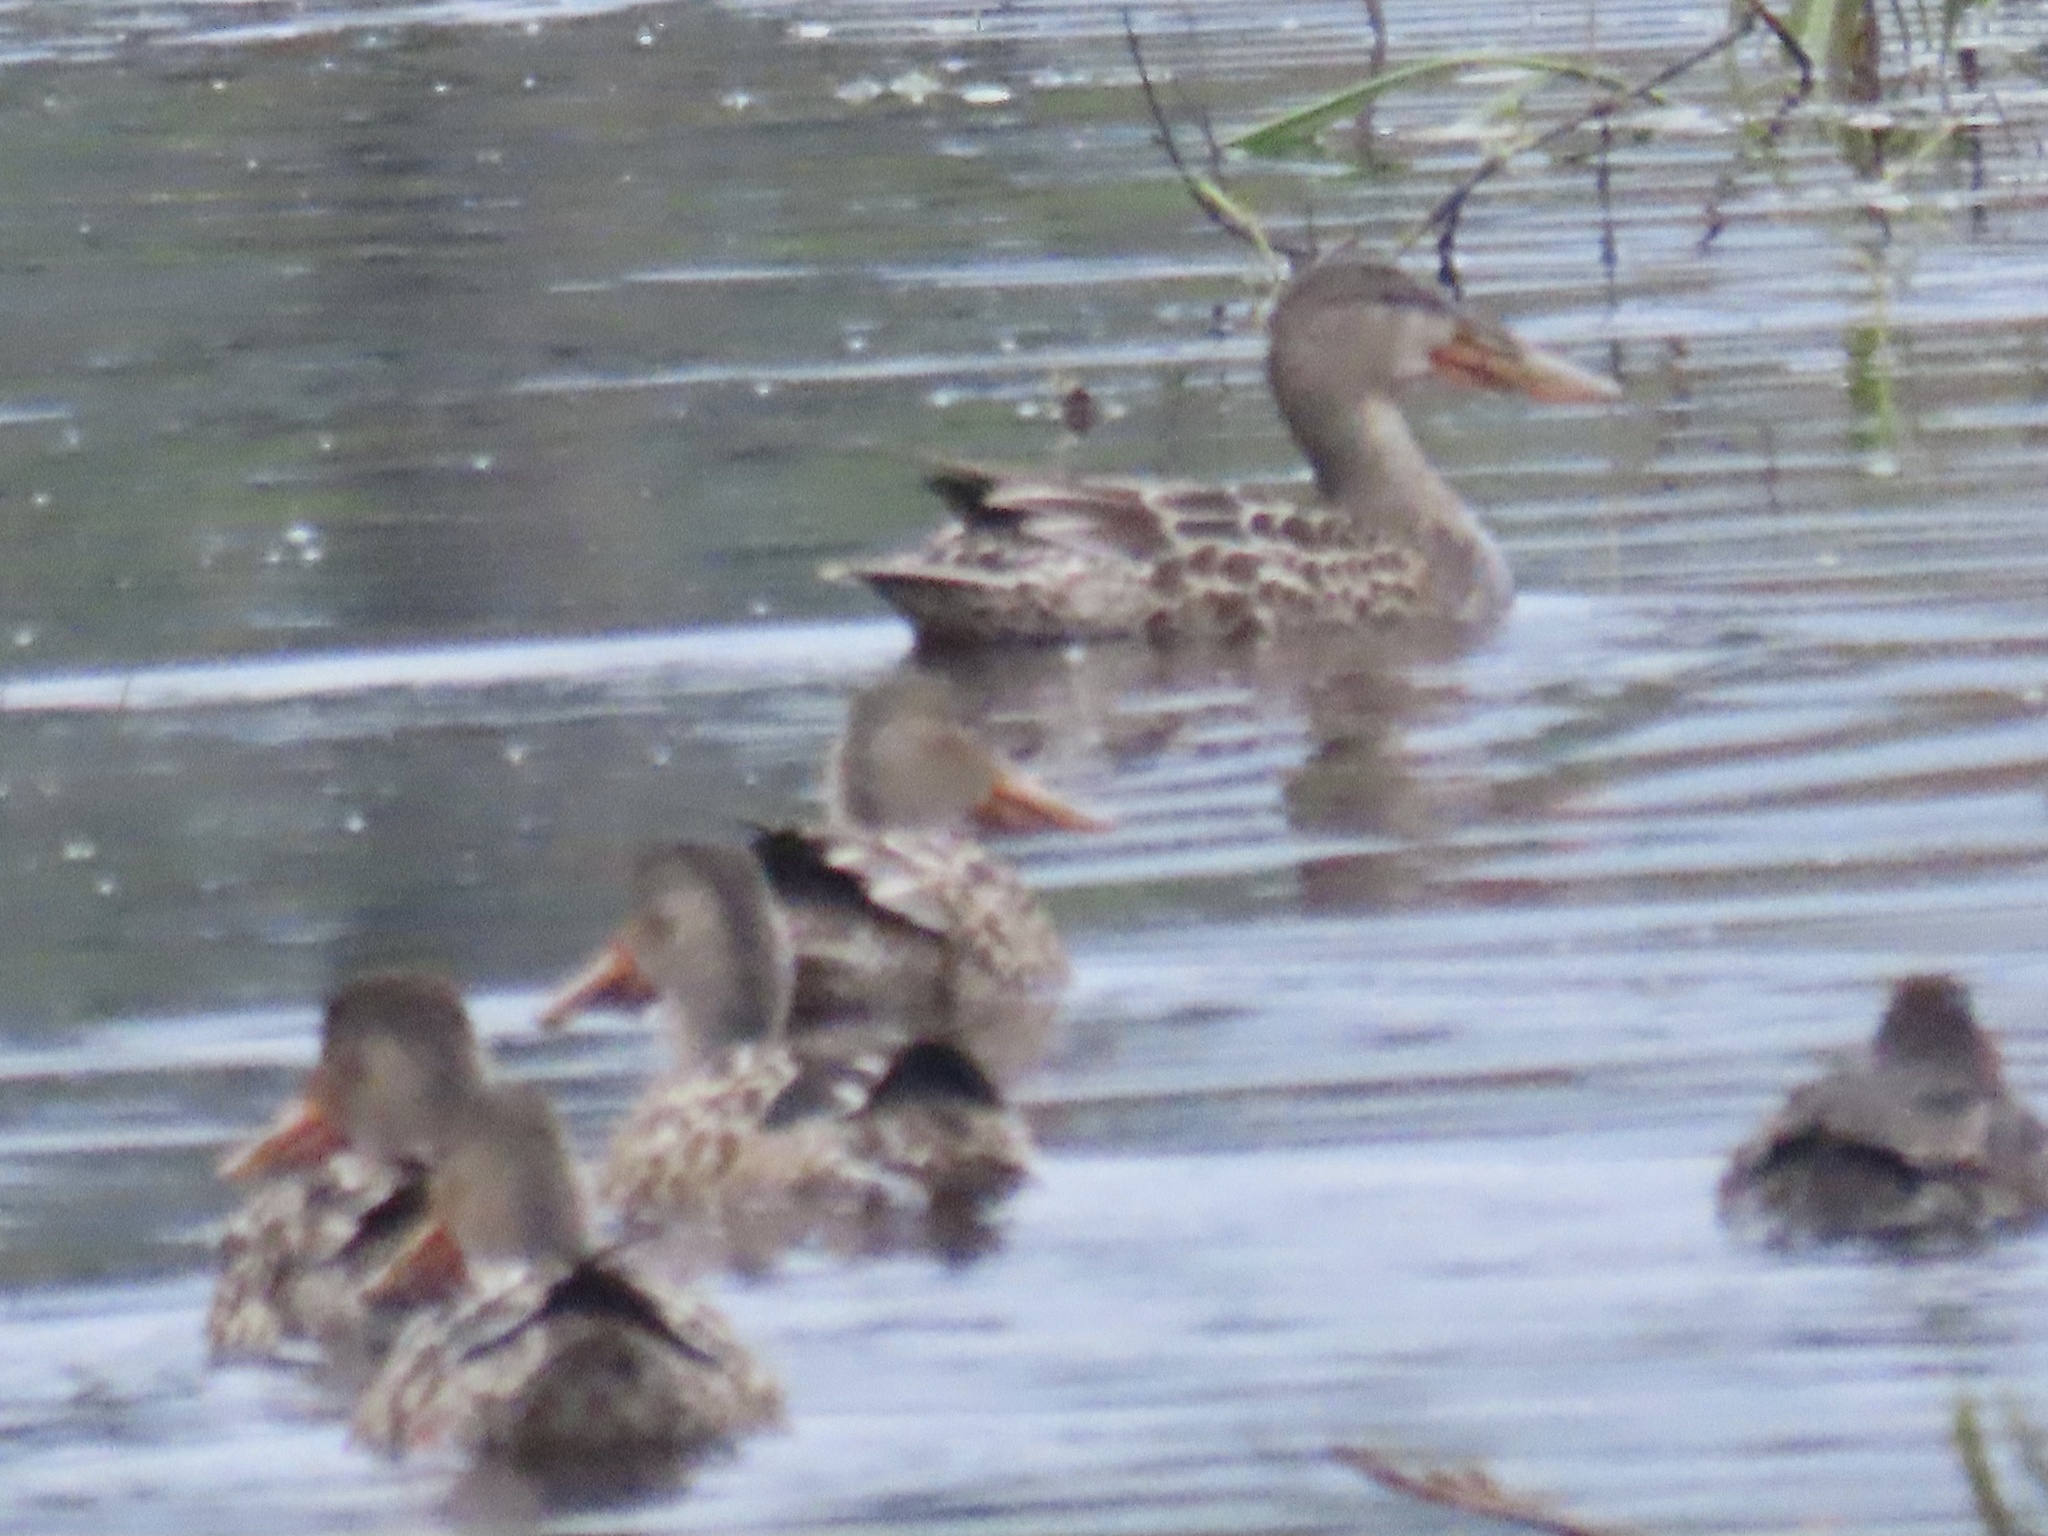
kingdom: Animalia
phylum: Chordata
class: Aves
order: Anseriformes
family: Anatidae
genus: Spatula
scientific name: Spatula clypeata
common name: Northern shoveler
